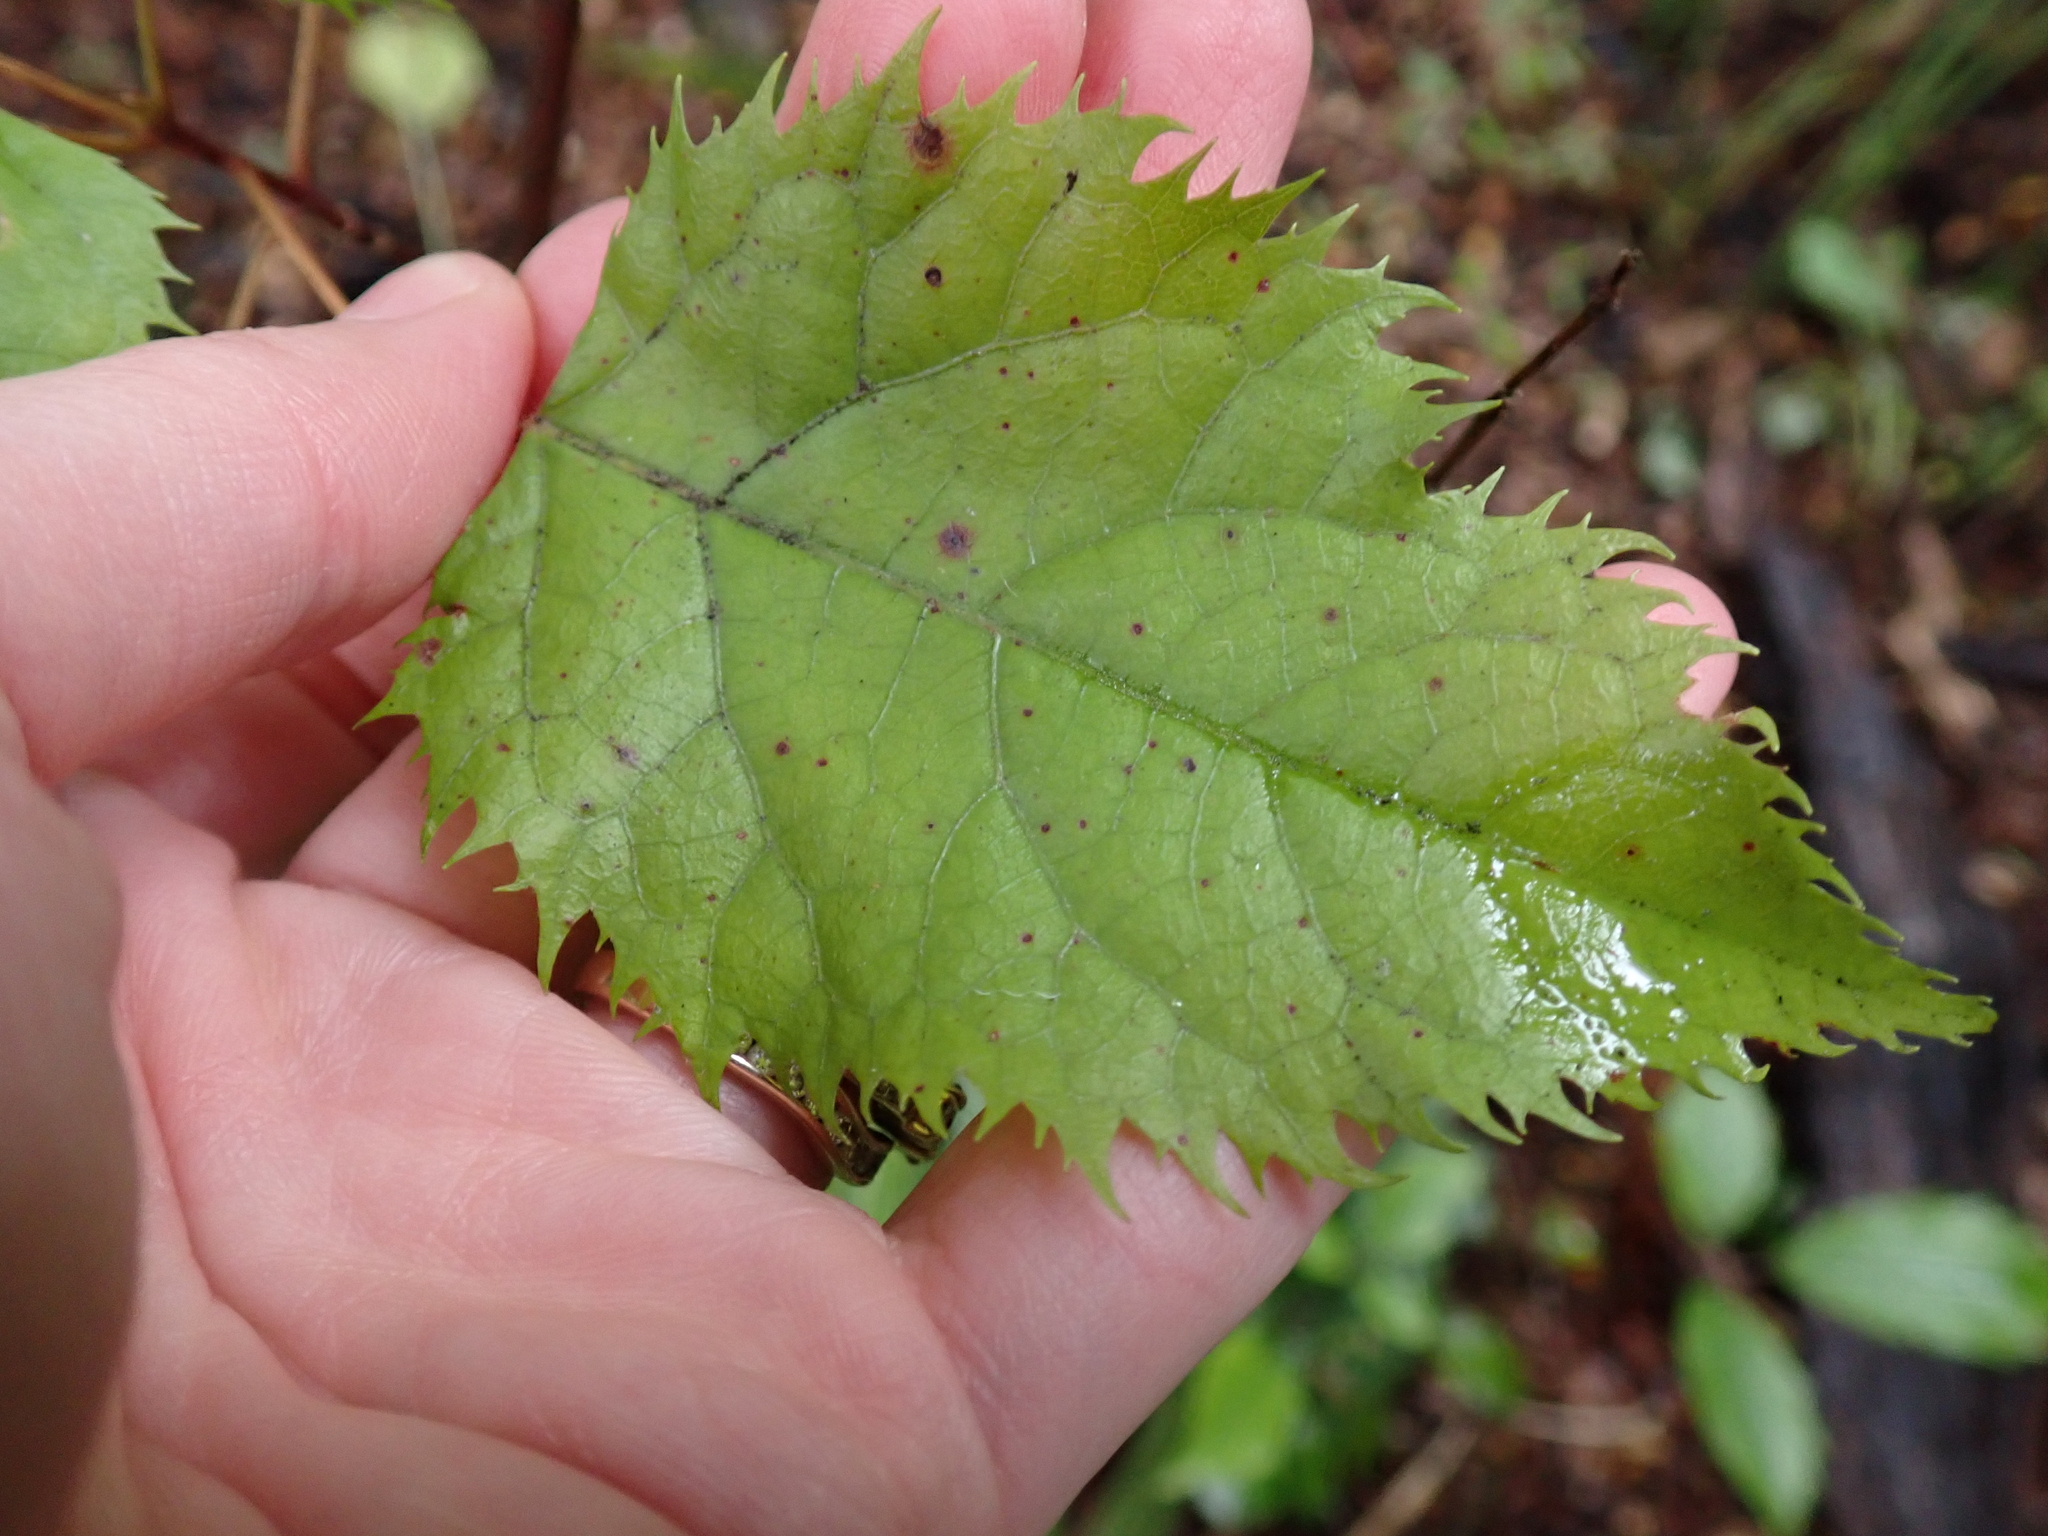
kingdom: Plantae
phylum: Tracheophyta
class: Magnoliopsida
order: Oxalidales
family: Elaeocarpaceae
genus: Aristotelia
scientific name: Aristotelia serrata
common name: New zealand wineberry
